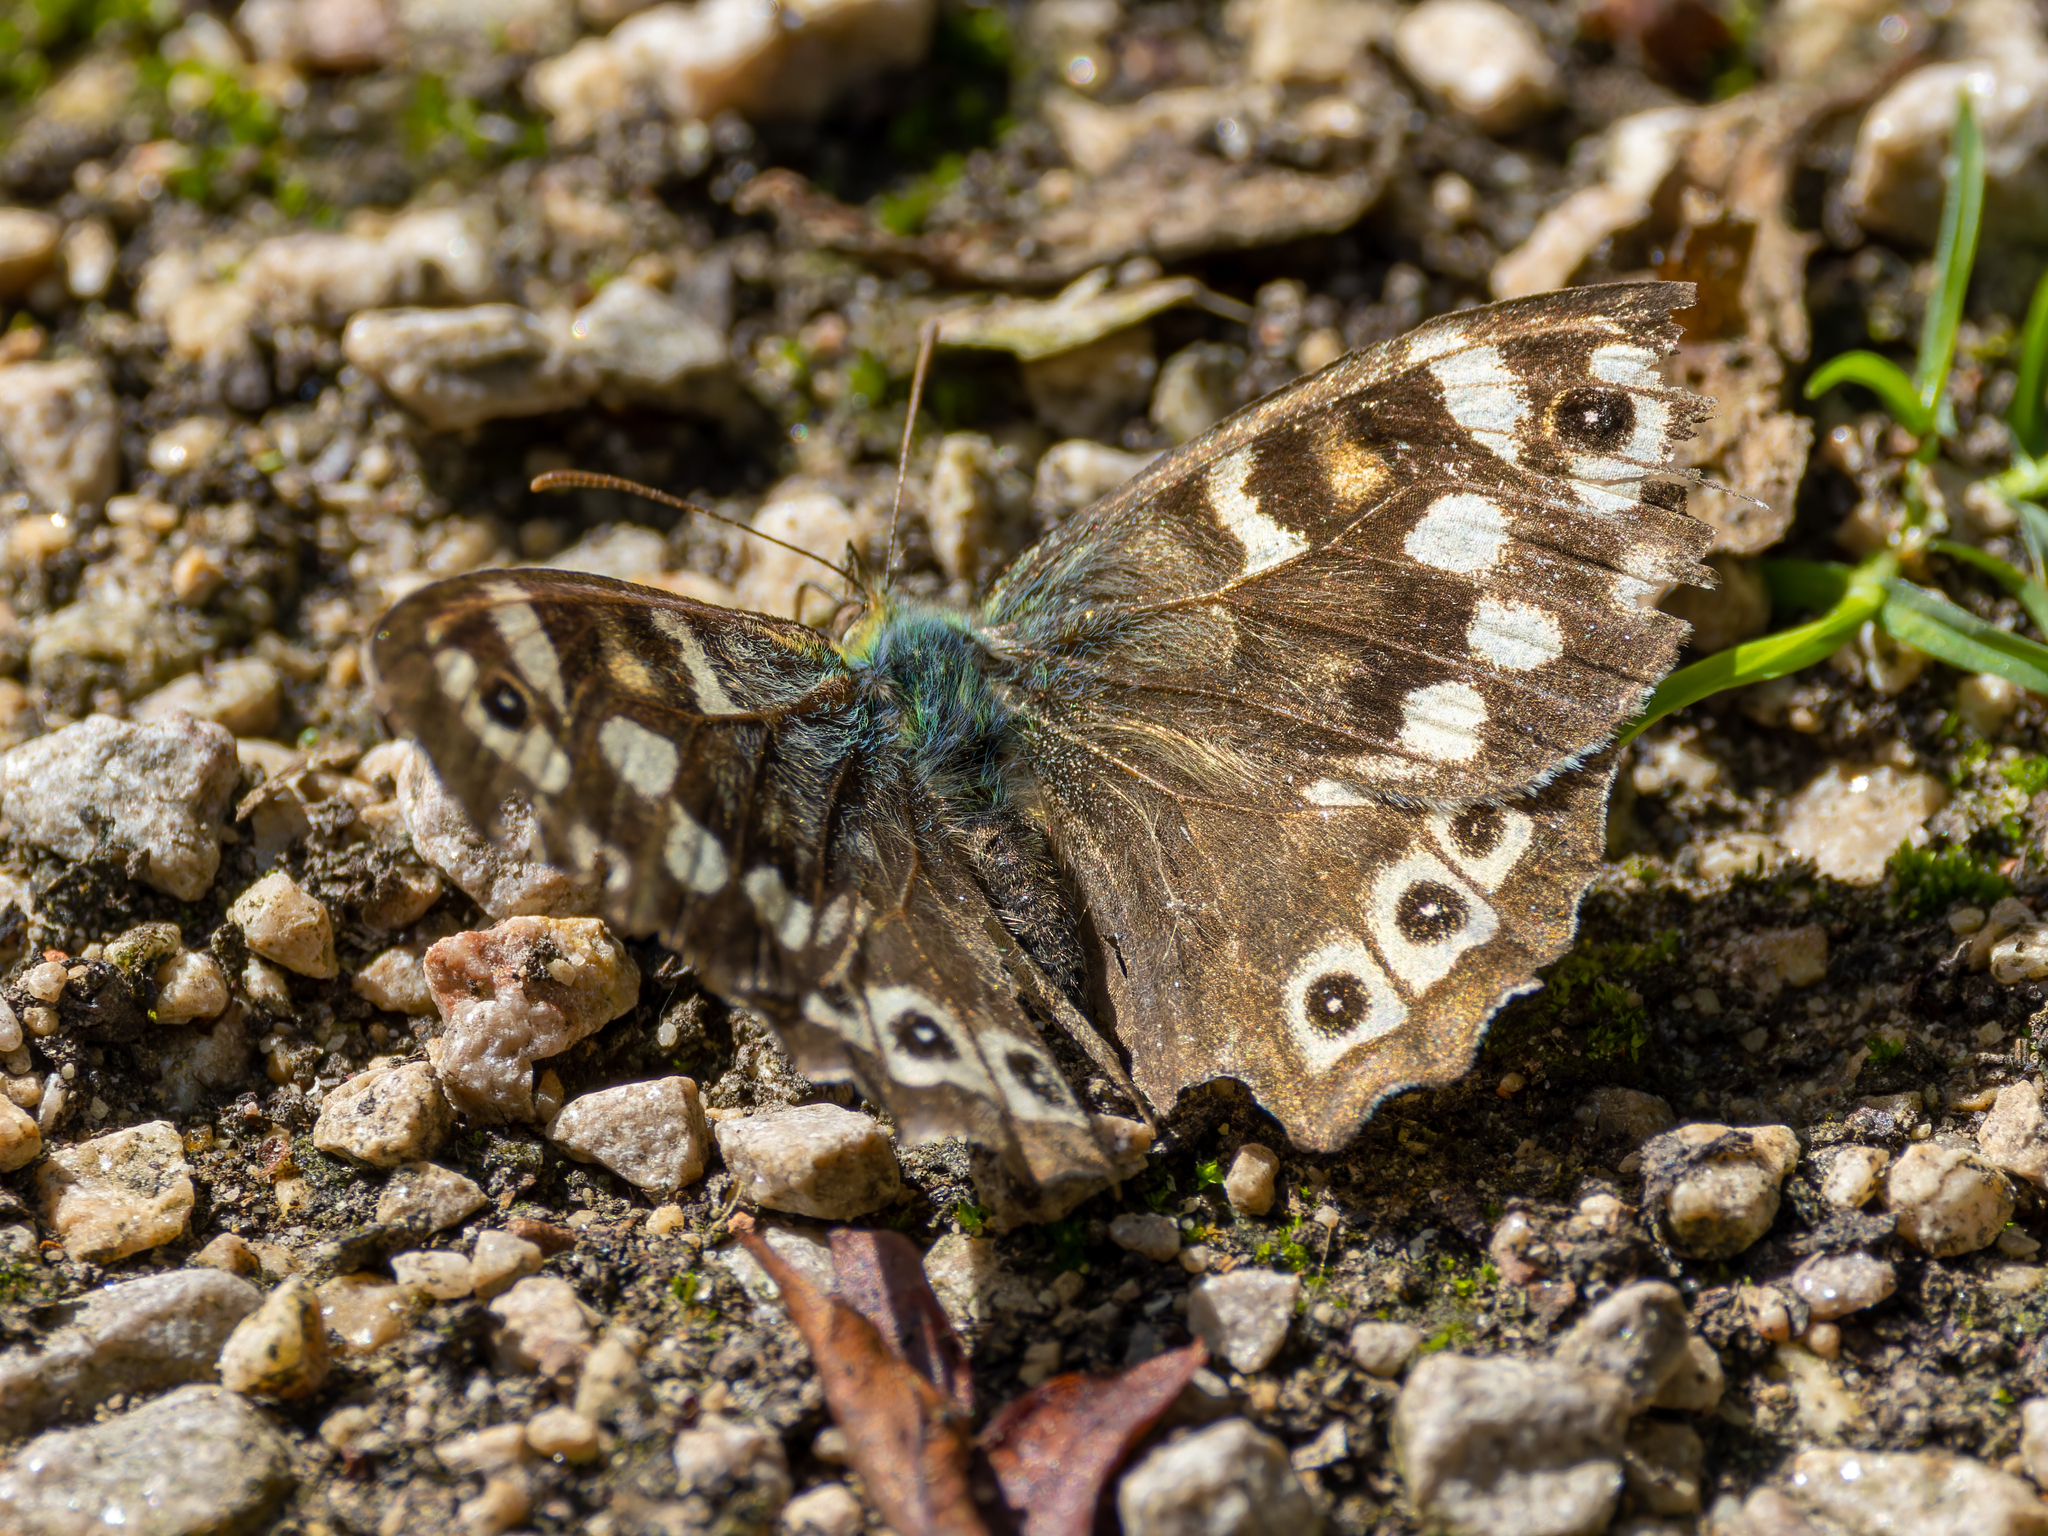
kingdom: Animalia
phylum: Arthropoda
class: Insecta
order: Lepidoptera
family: Nymphalidae
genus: Pararge
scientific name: Pararge aegeria
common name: Speckled wood
